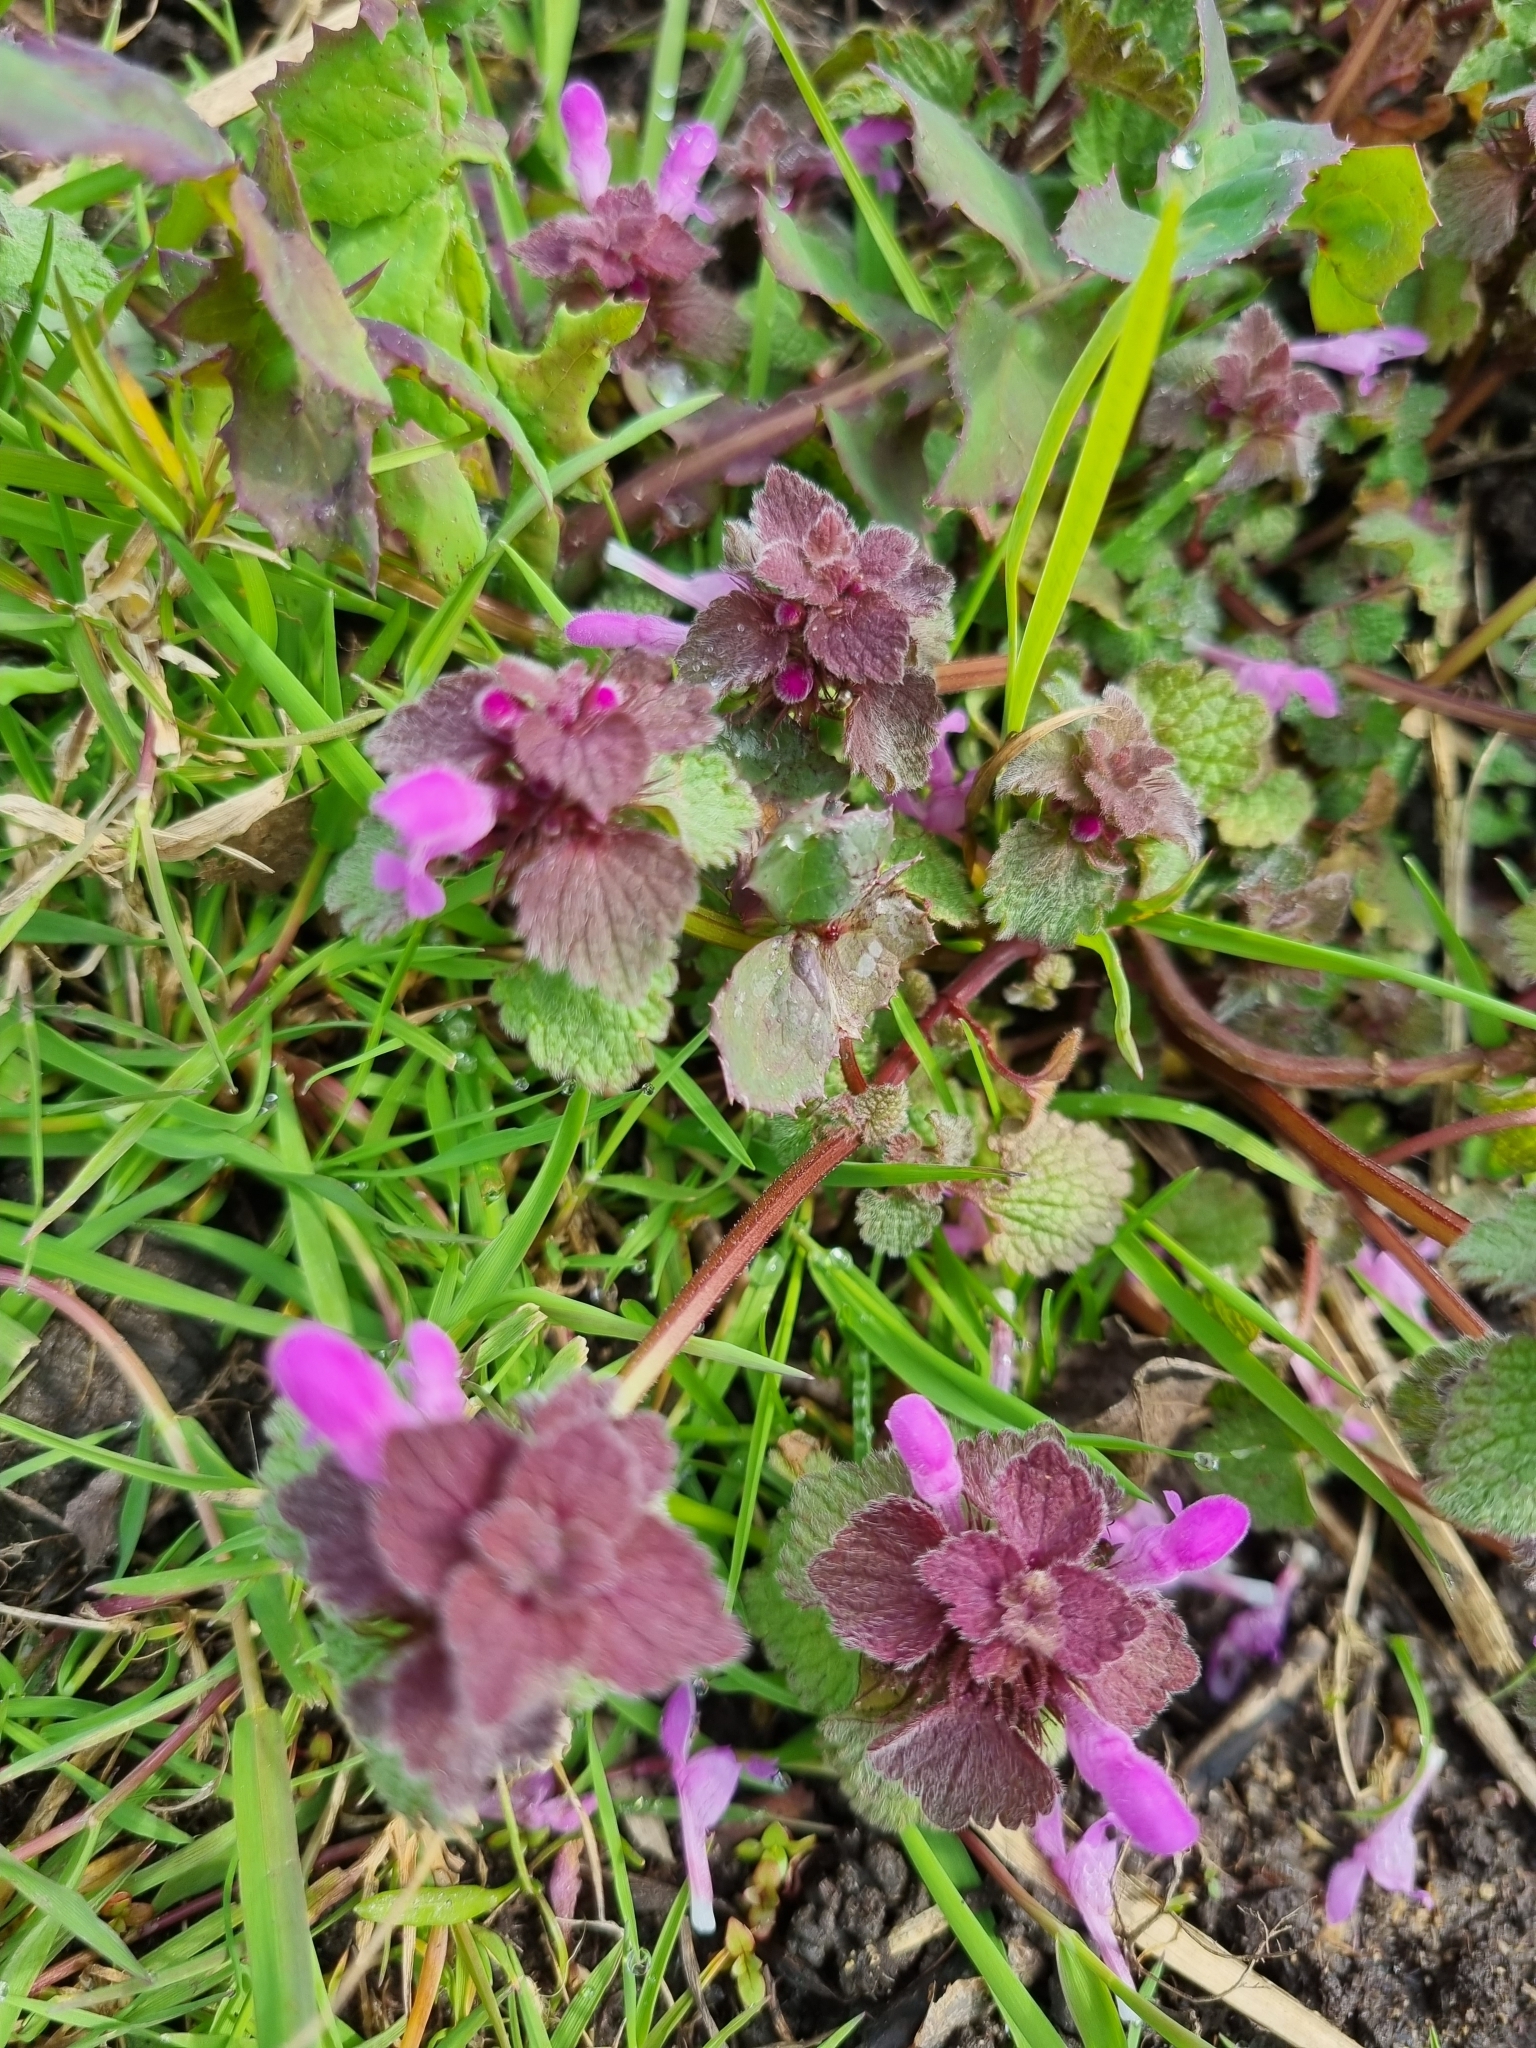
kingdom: Plantae
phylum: Tracheophyta
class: Magnoliopsida
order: Lamiales
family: Lamiaceae
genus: Lamium
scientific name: Lamium purpureum
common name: Red dead-nettle
